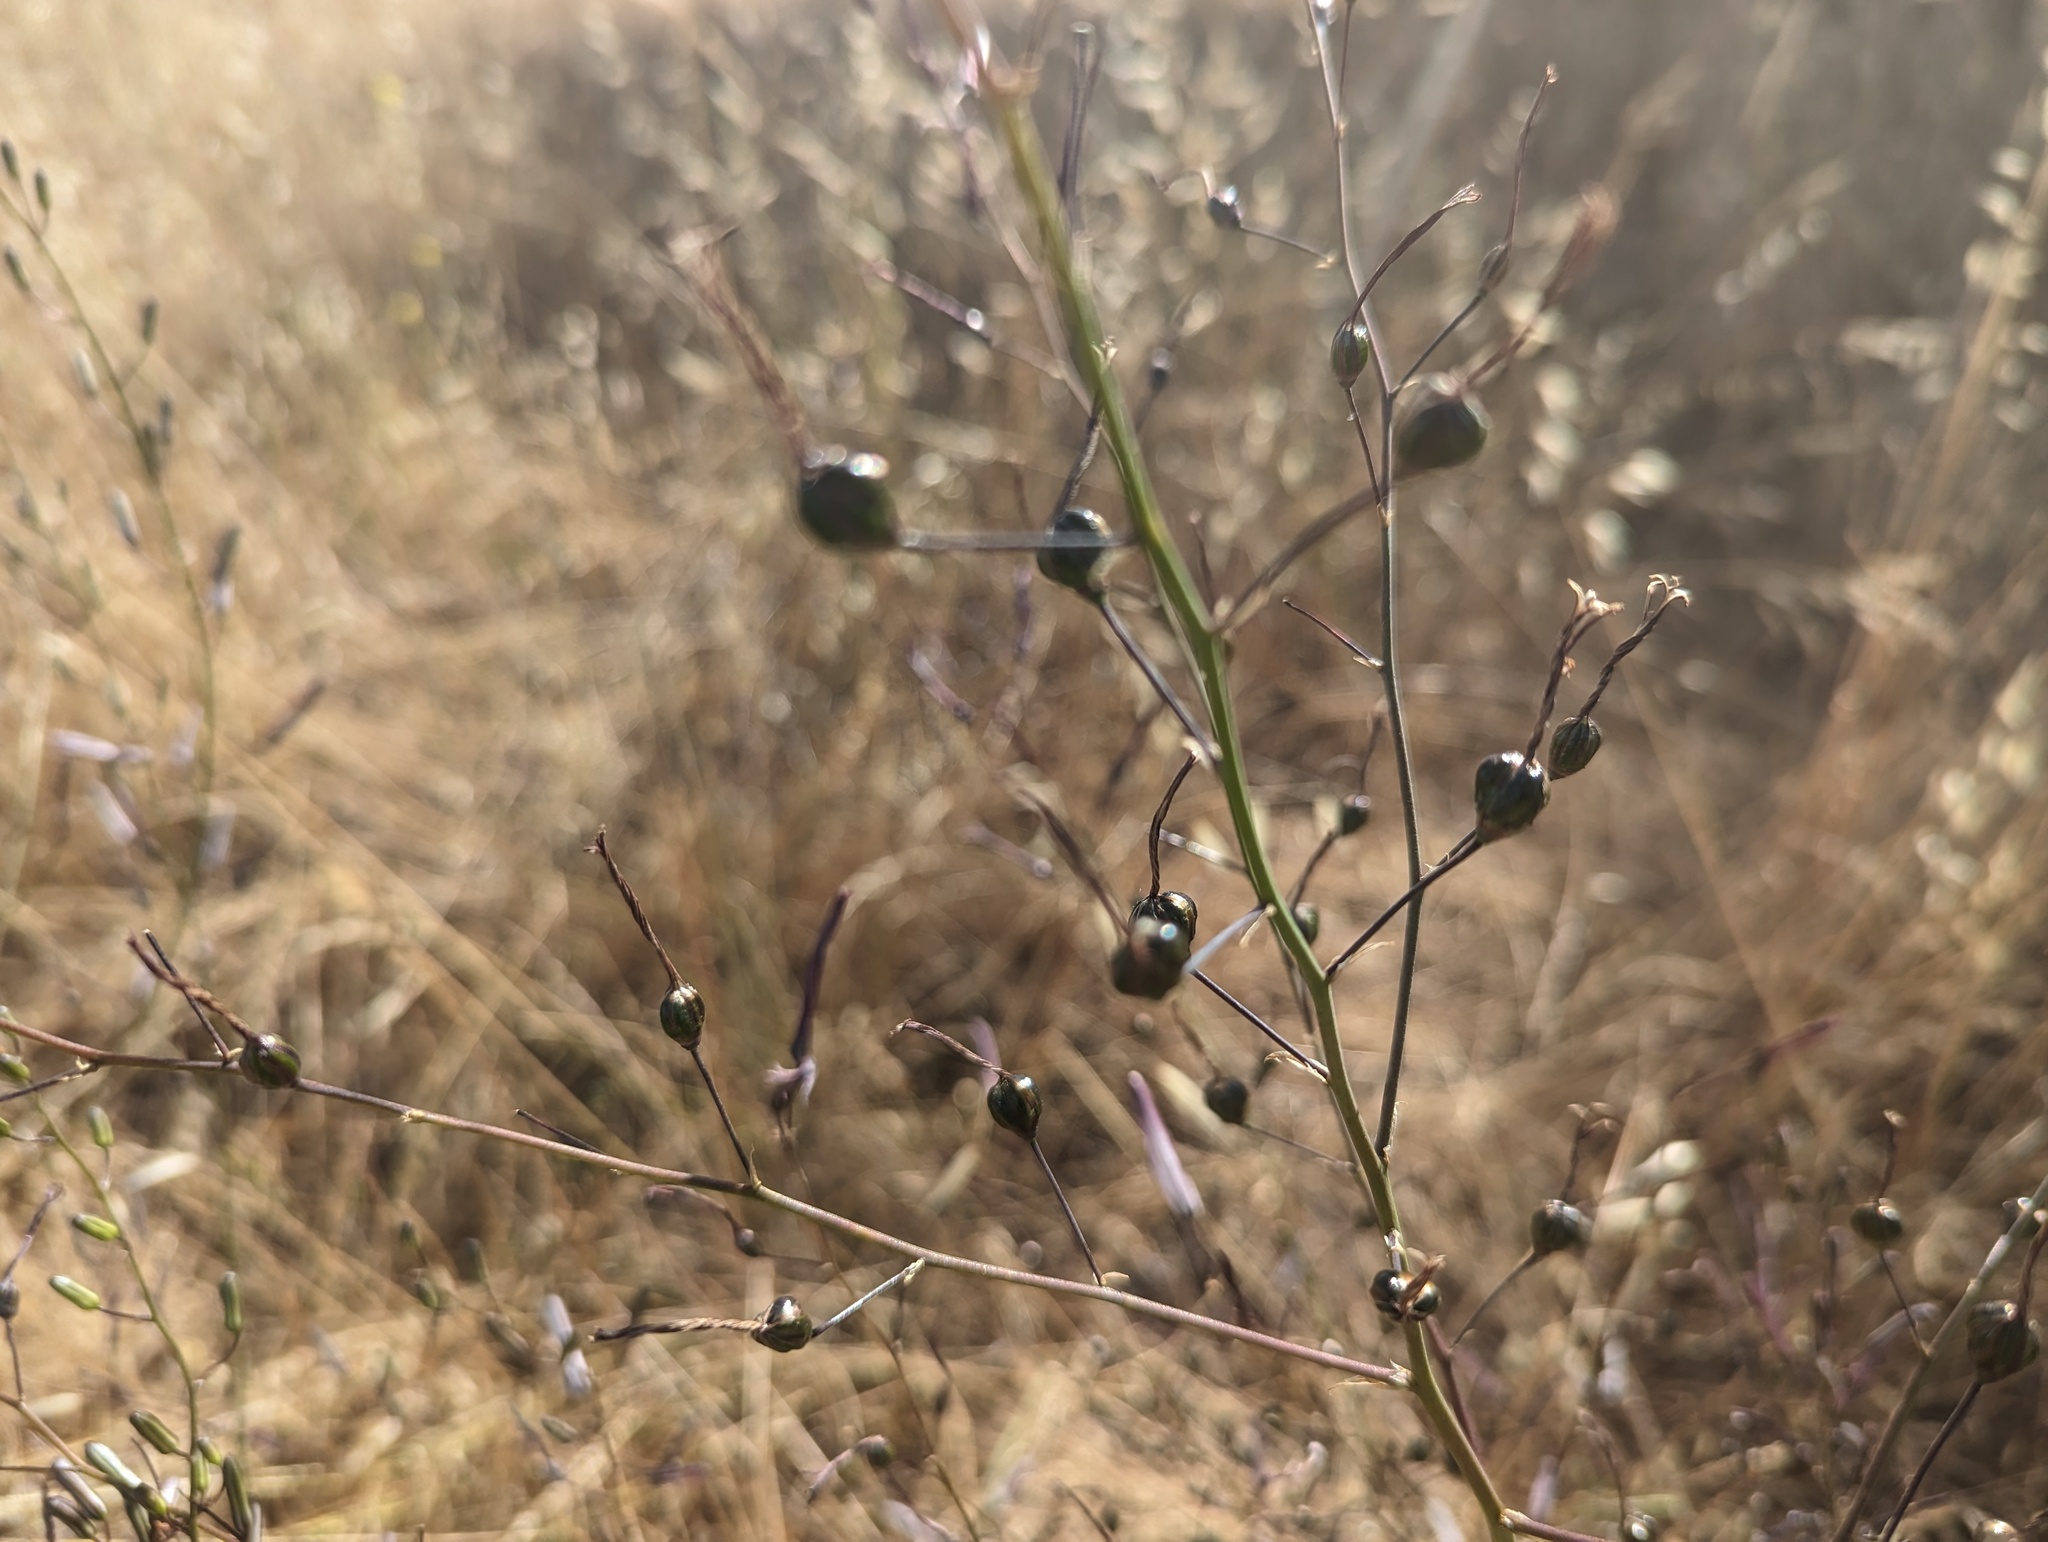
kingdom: Plantae
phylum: Tracheophyta
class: Liliopsida
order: Asparagales
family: Asparagaceae
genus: Chlorogalum
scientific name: Chlorogalum pomeridianum
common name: Amole
